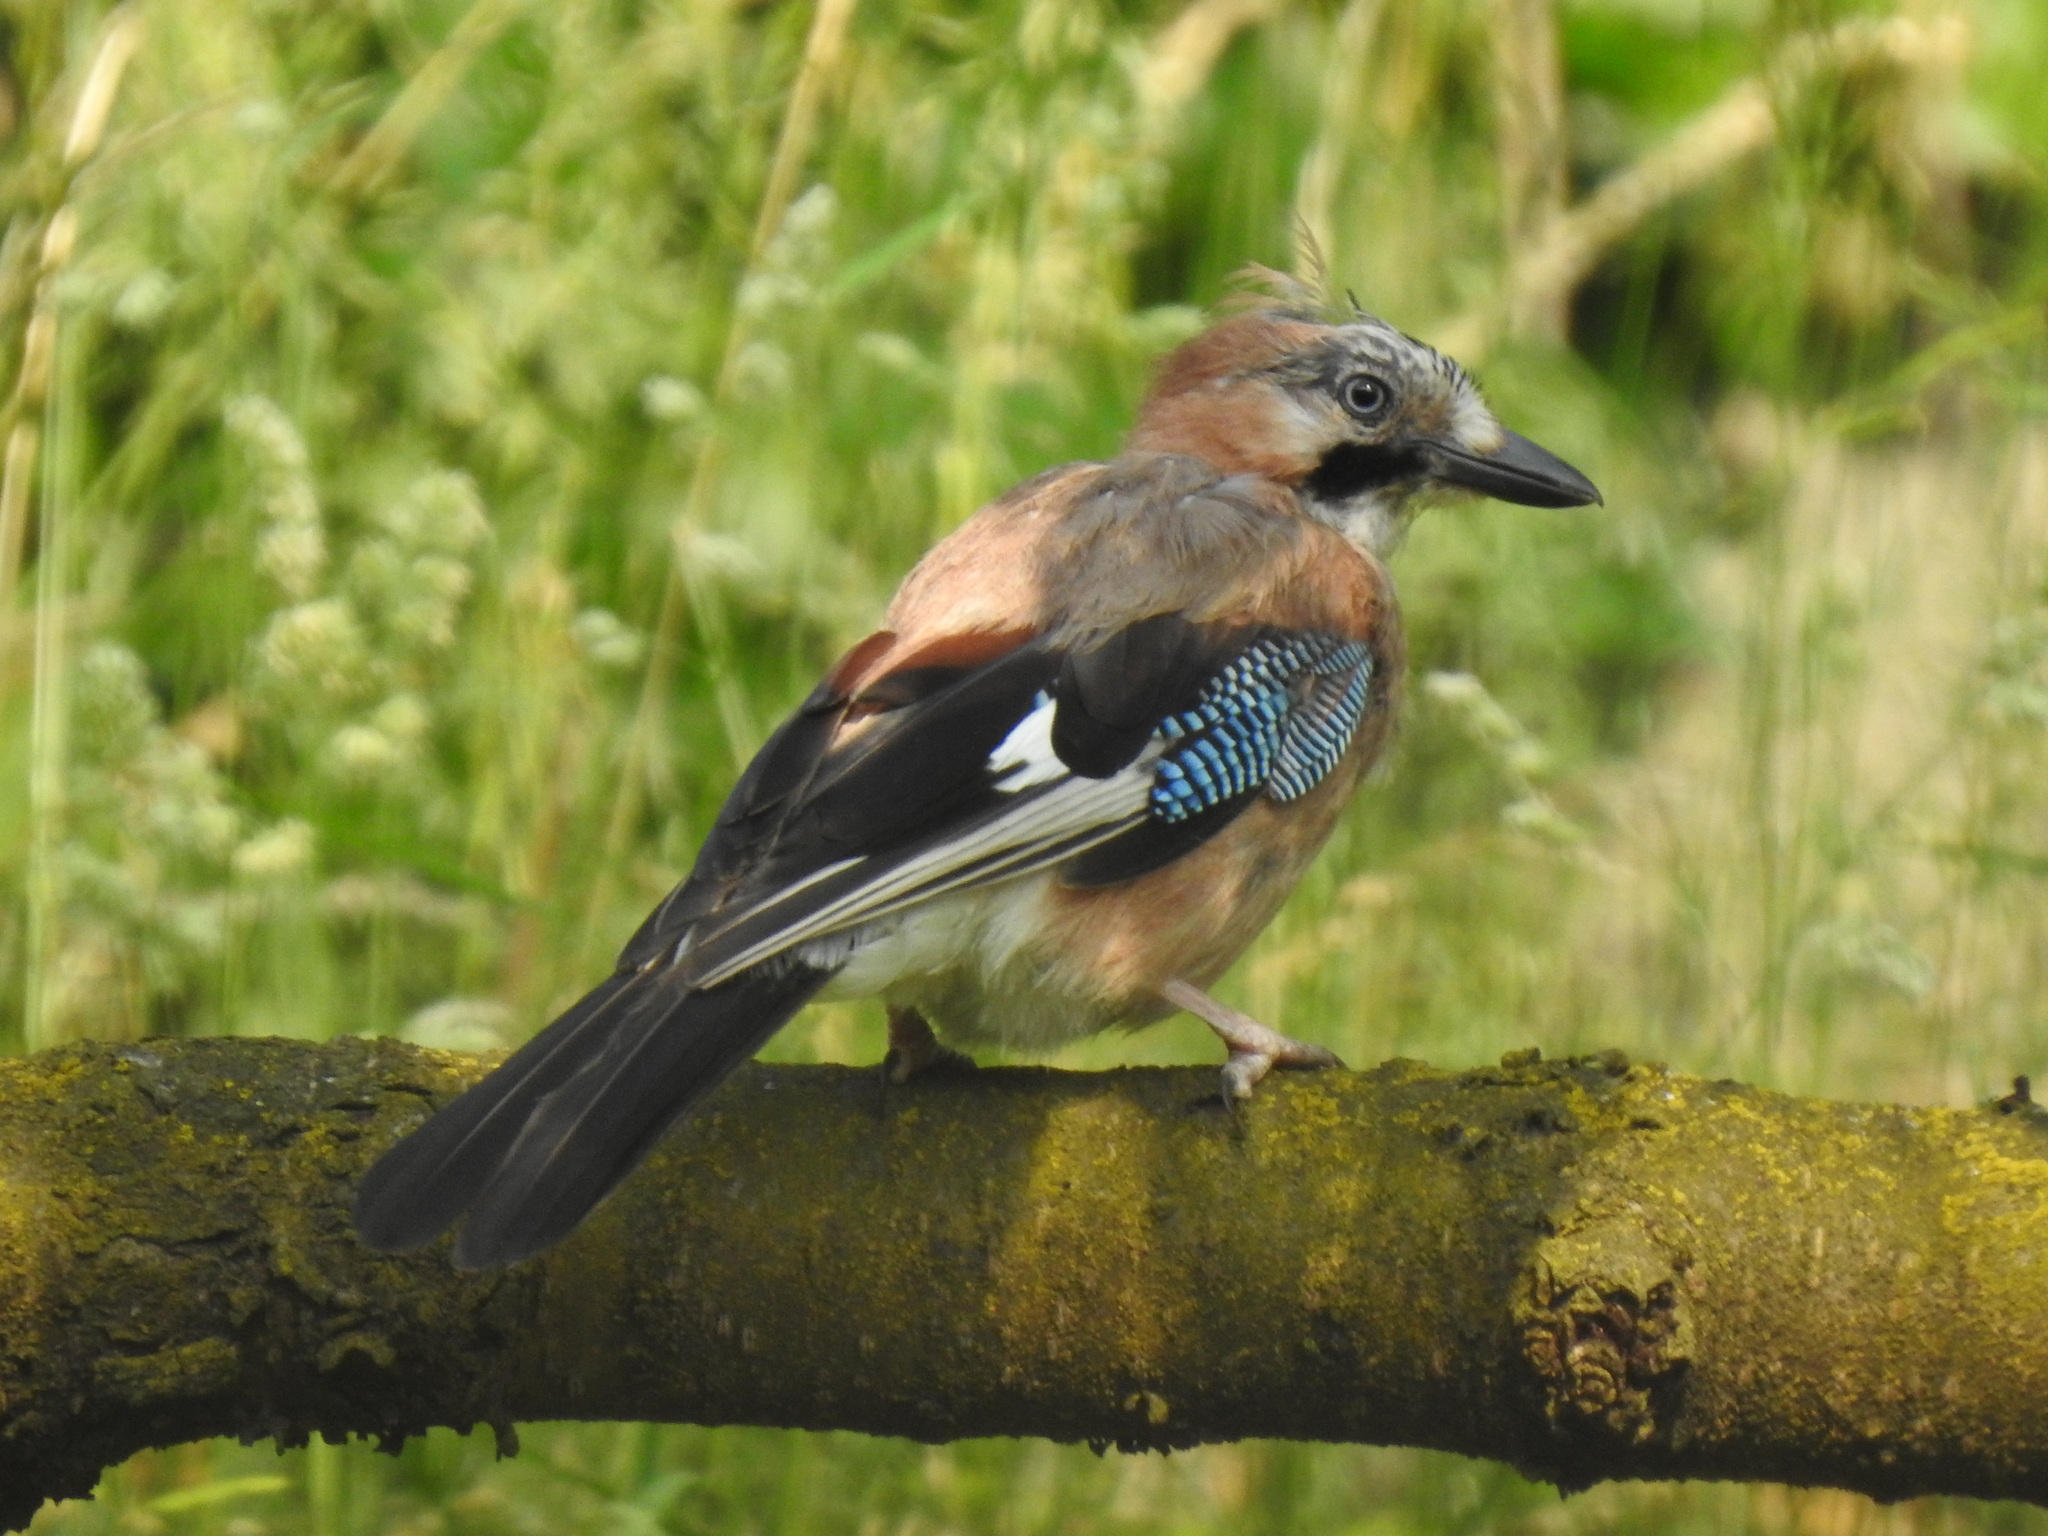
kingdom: Animalia
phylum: Chordata
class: Aves
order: Passeriformes
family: Corvidae
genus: Garrulus
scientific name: Garrulus glandarius
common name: Eurasian jay
